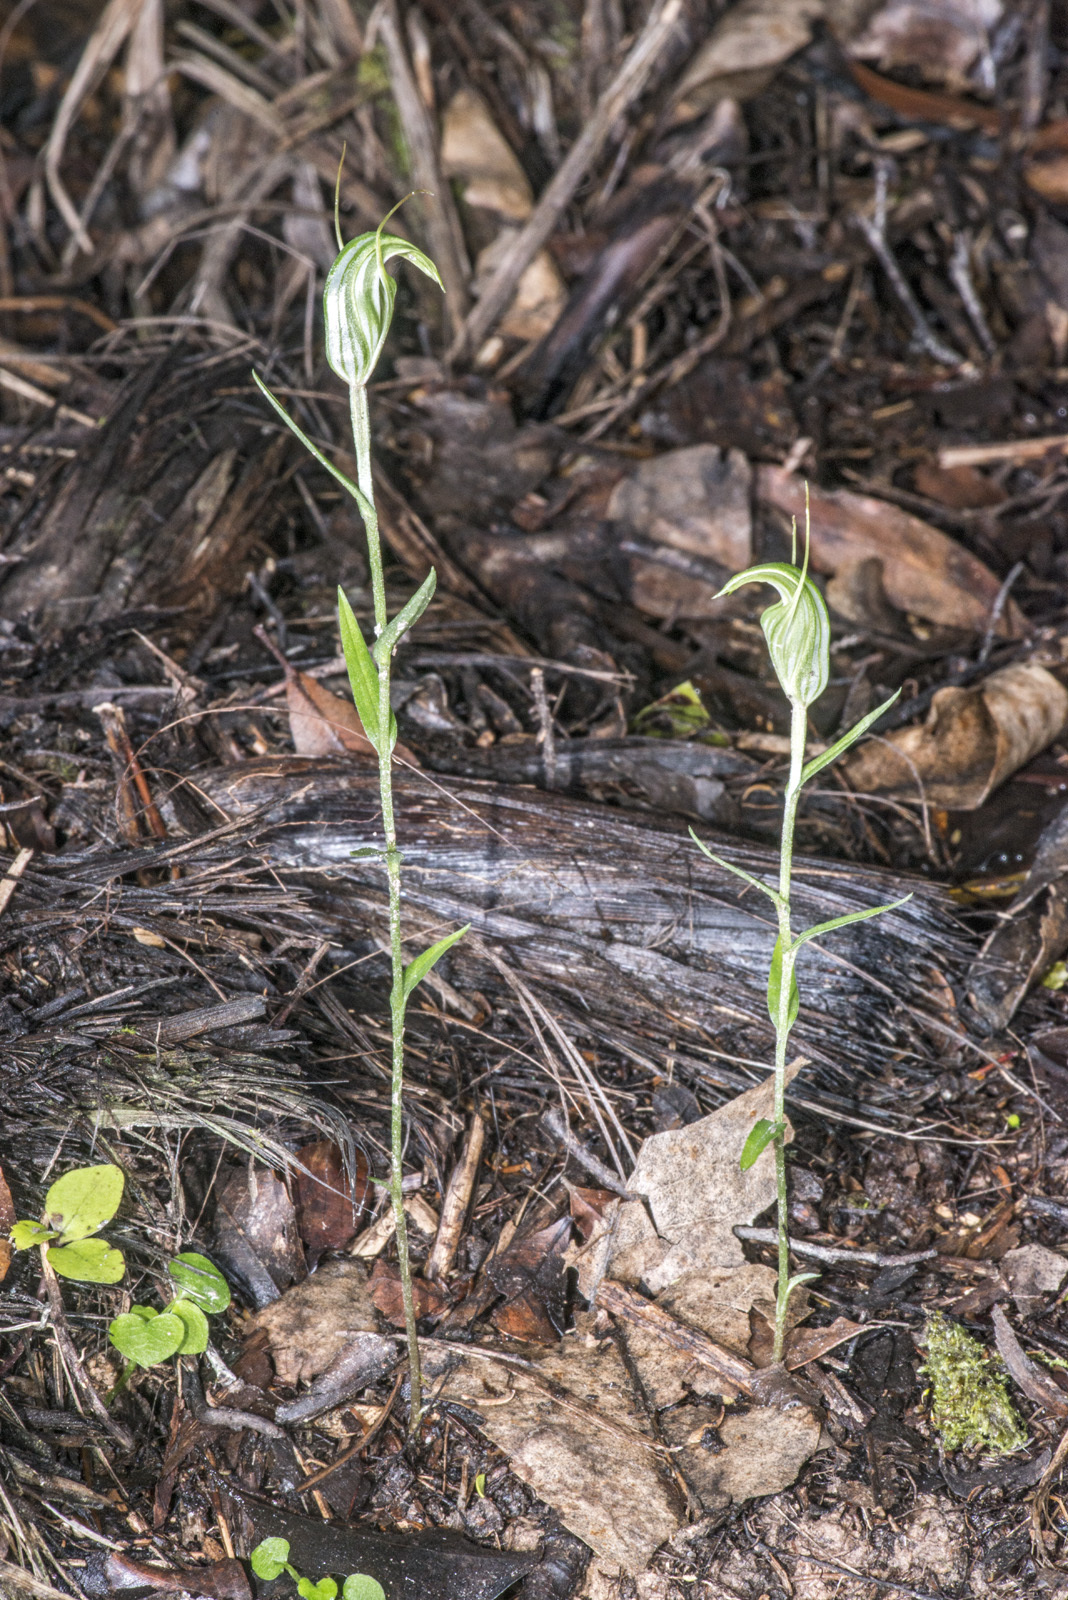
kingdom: Plantae
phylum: Tracheophyta
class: Liliopsida
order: Asparagales
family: Orchidaceae
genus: Pterostylis
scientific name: Pterostylis alobula
